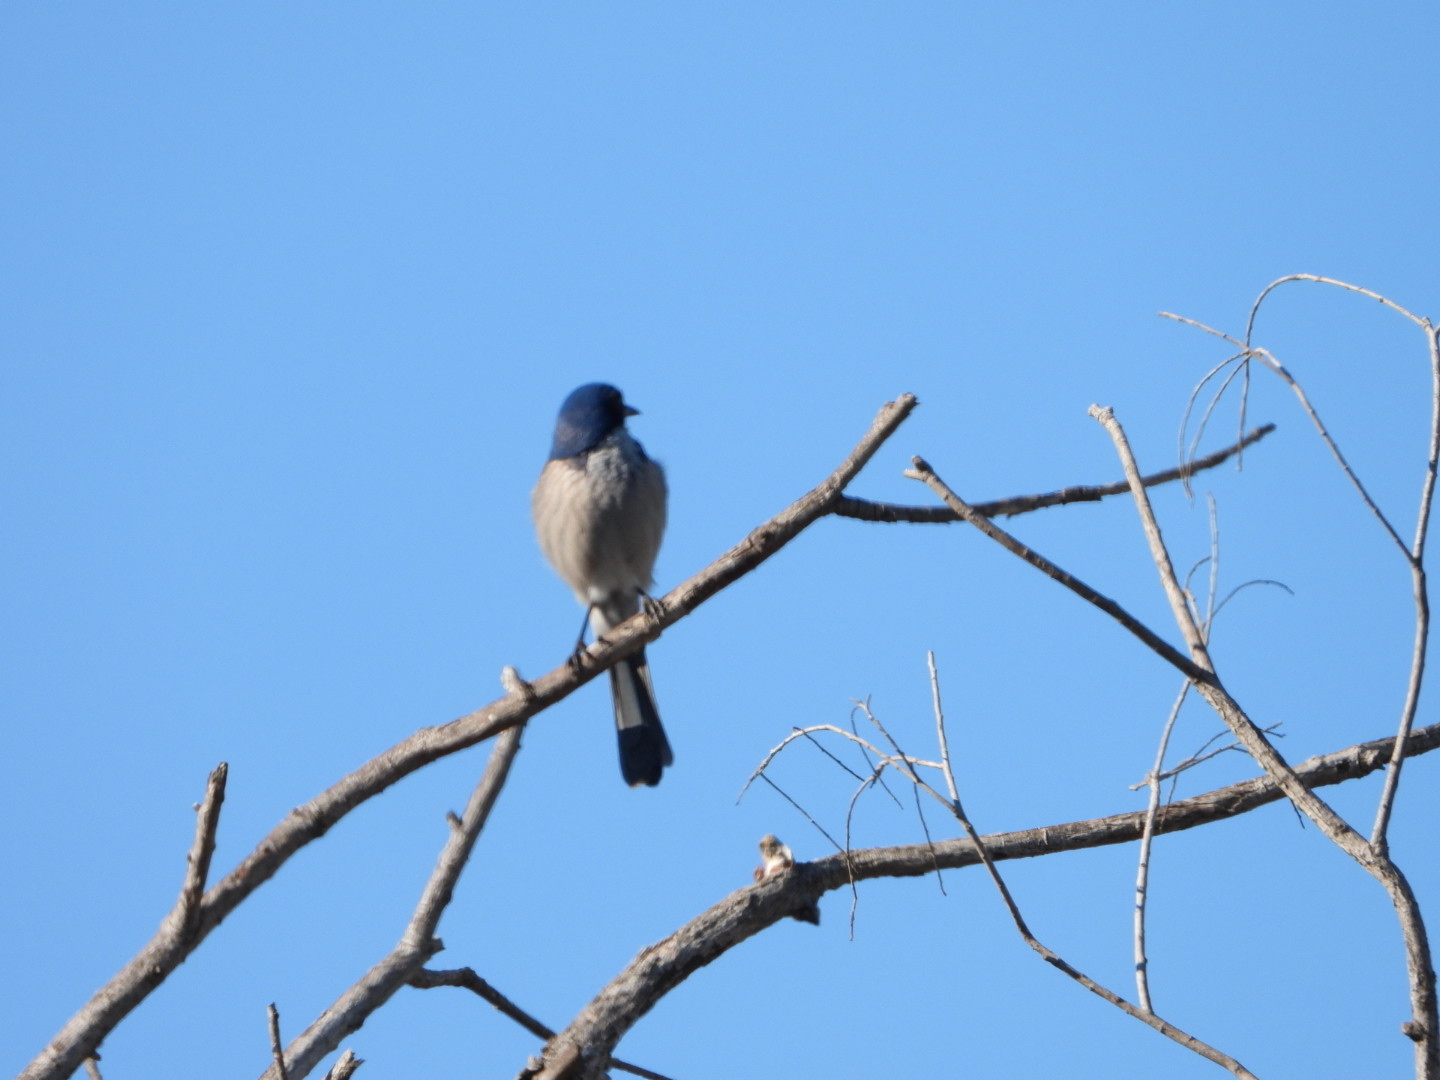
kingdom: Animalia
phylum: Chordata
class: Aves
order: Passeriformes
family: Corvidae
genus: Aphelocoma
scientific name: Aphelocoma californica
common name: California scrub-jay
